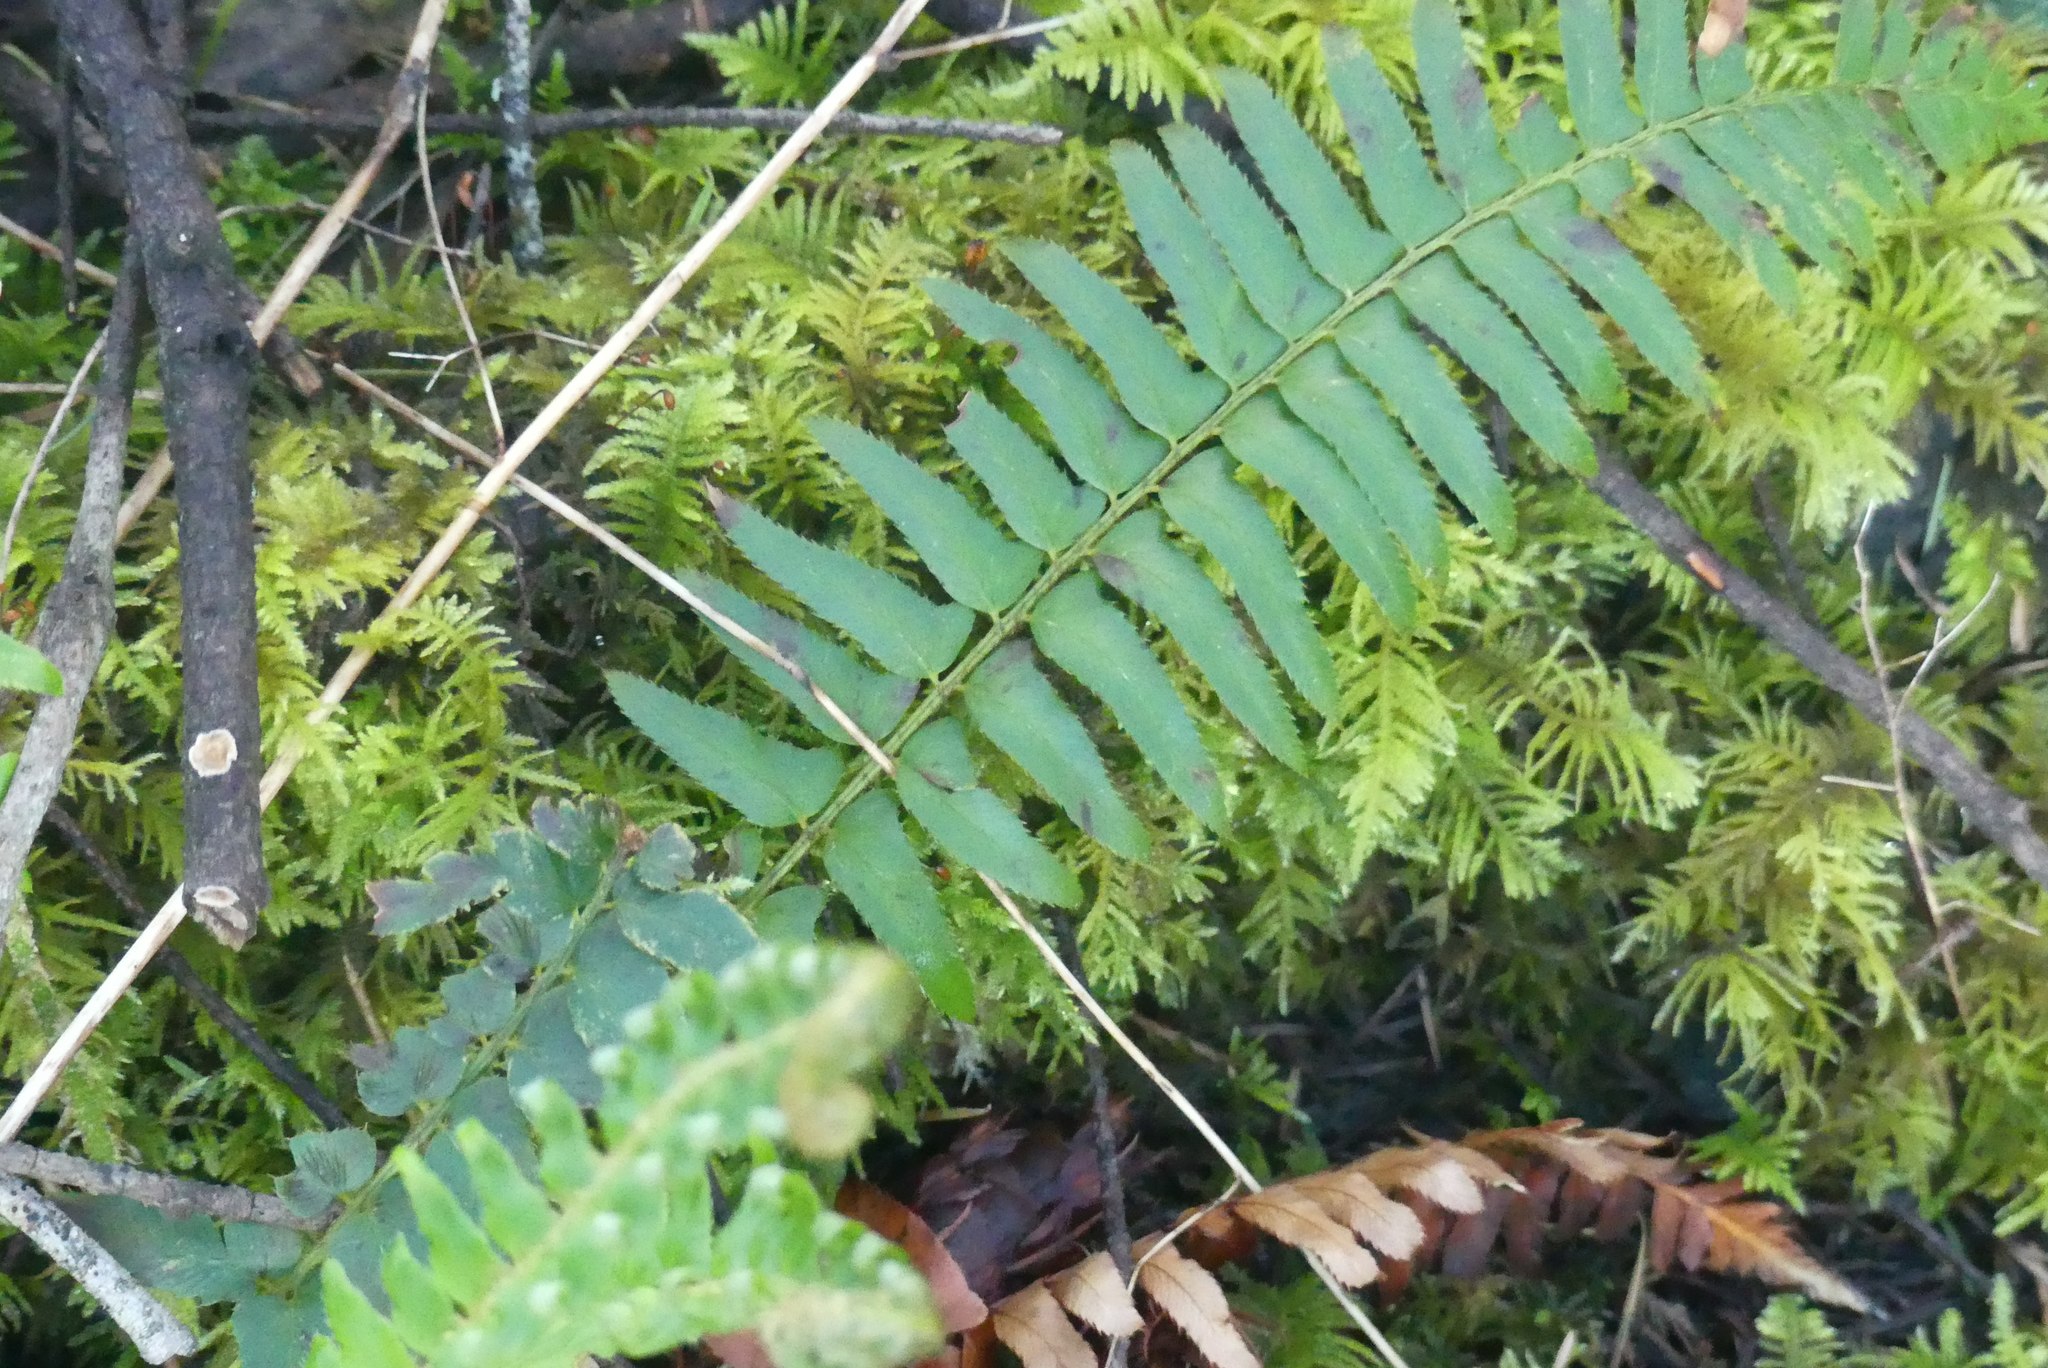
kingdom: Plantae
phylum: Tracheophyta
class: Polypodiopsida
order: Polypodiales
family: Dryopteridaceae
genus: Polystichum
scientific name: Polystichum munitum
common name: Western sword-fern
